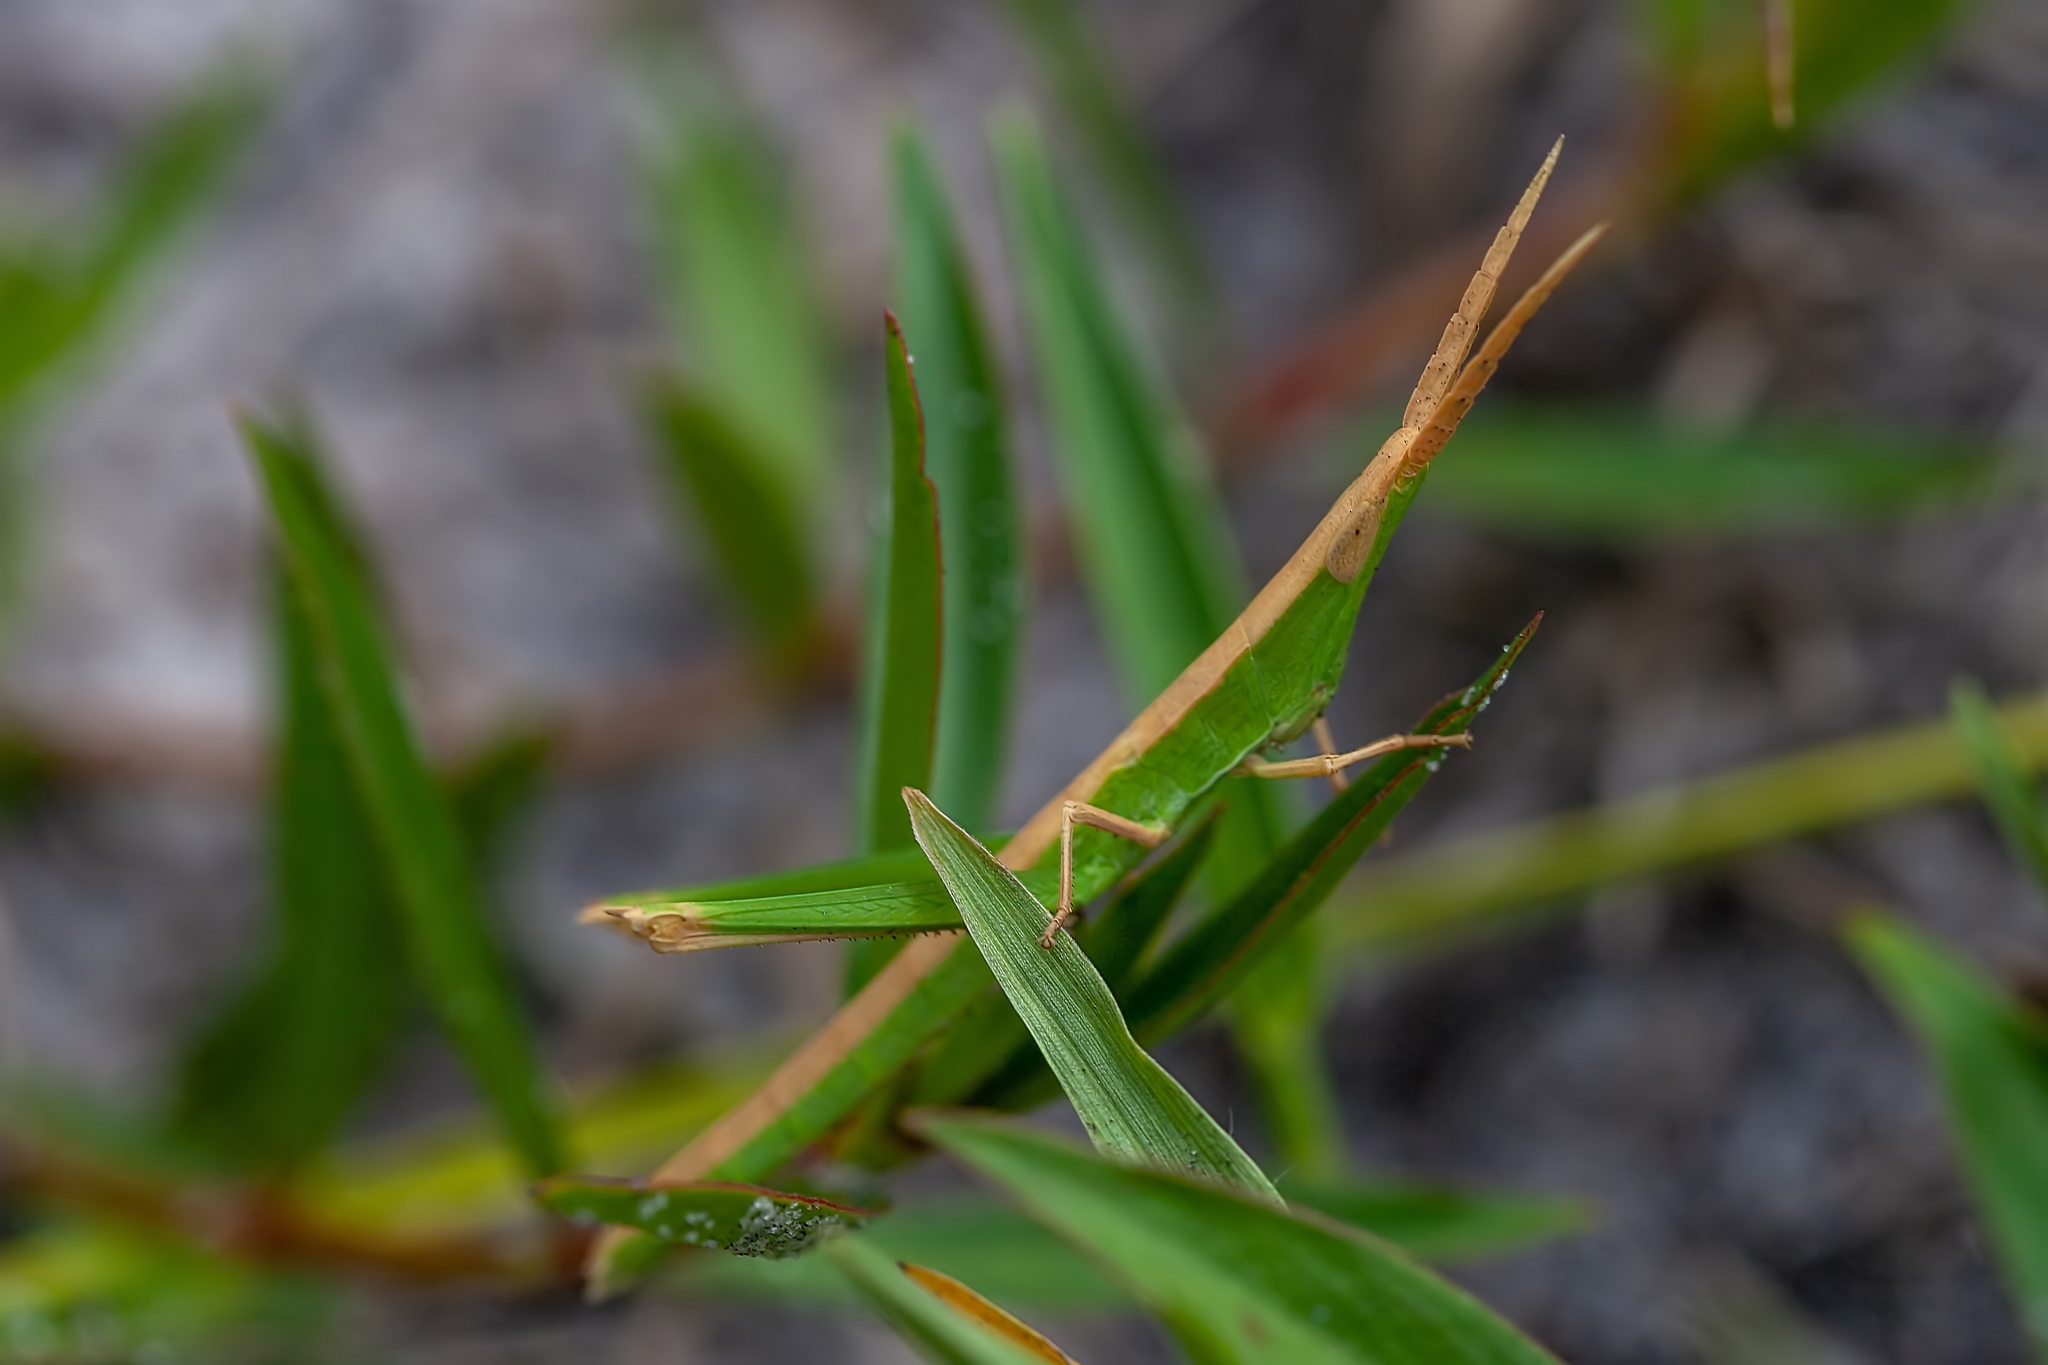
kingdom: Animalia
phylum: Arthropoda
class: Insecta
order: Orthoptera
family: Acrididae
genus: Achurum
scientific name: Achurum carinatum
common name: Long-headed toothpick grasshopper
